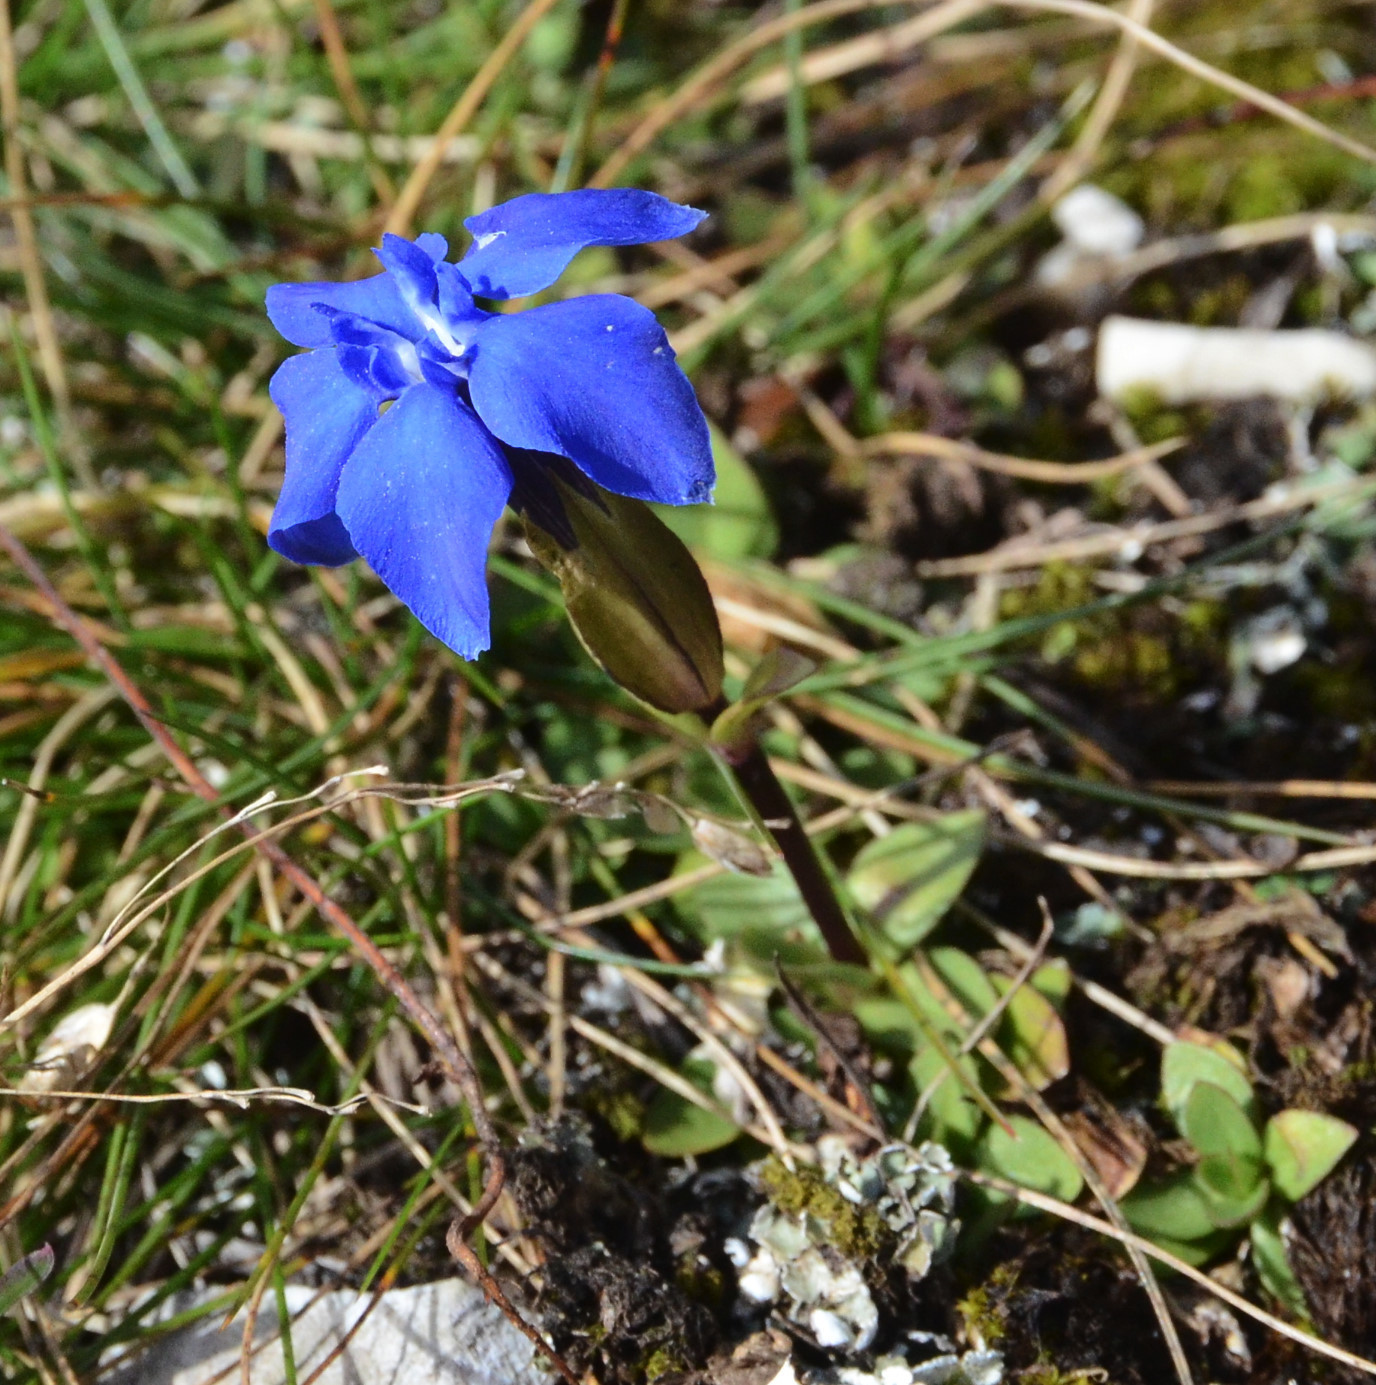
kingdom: Plantae
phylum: Tracheophyta
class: Magnoliopsida
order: Gentianales
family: Gentianaceae
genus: Gentiana
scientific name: Gentiana verna
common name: Spring gentian
